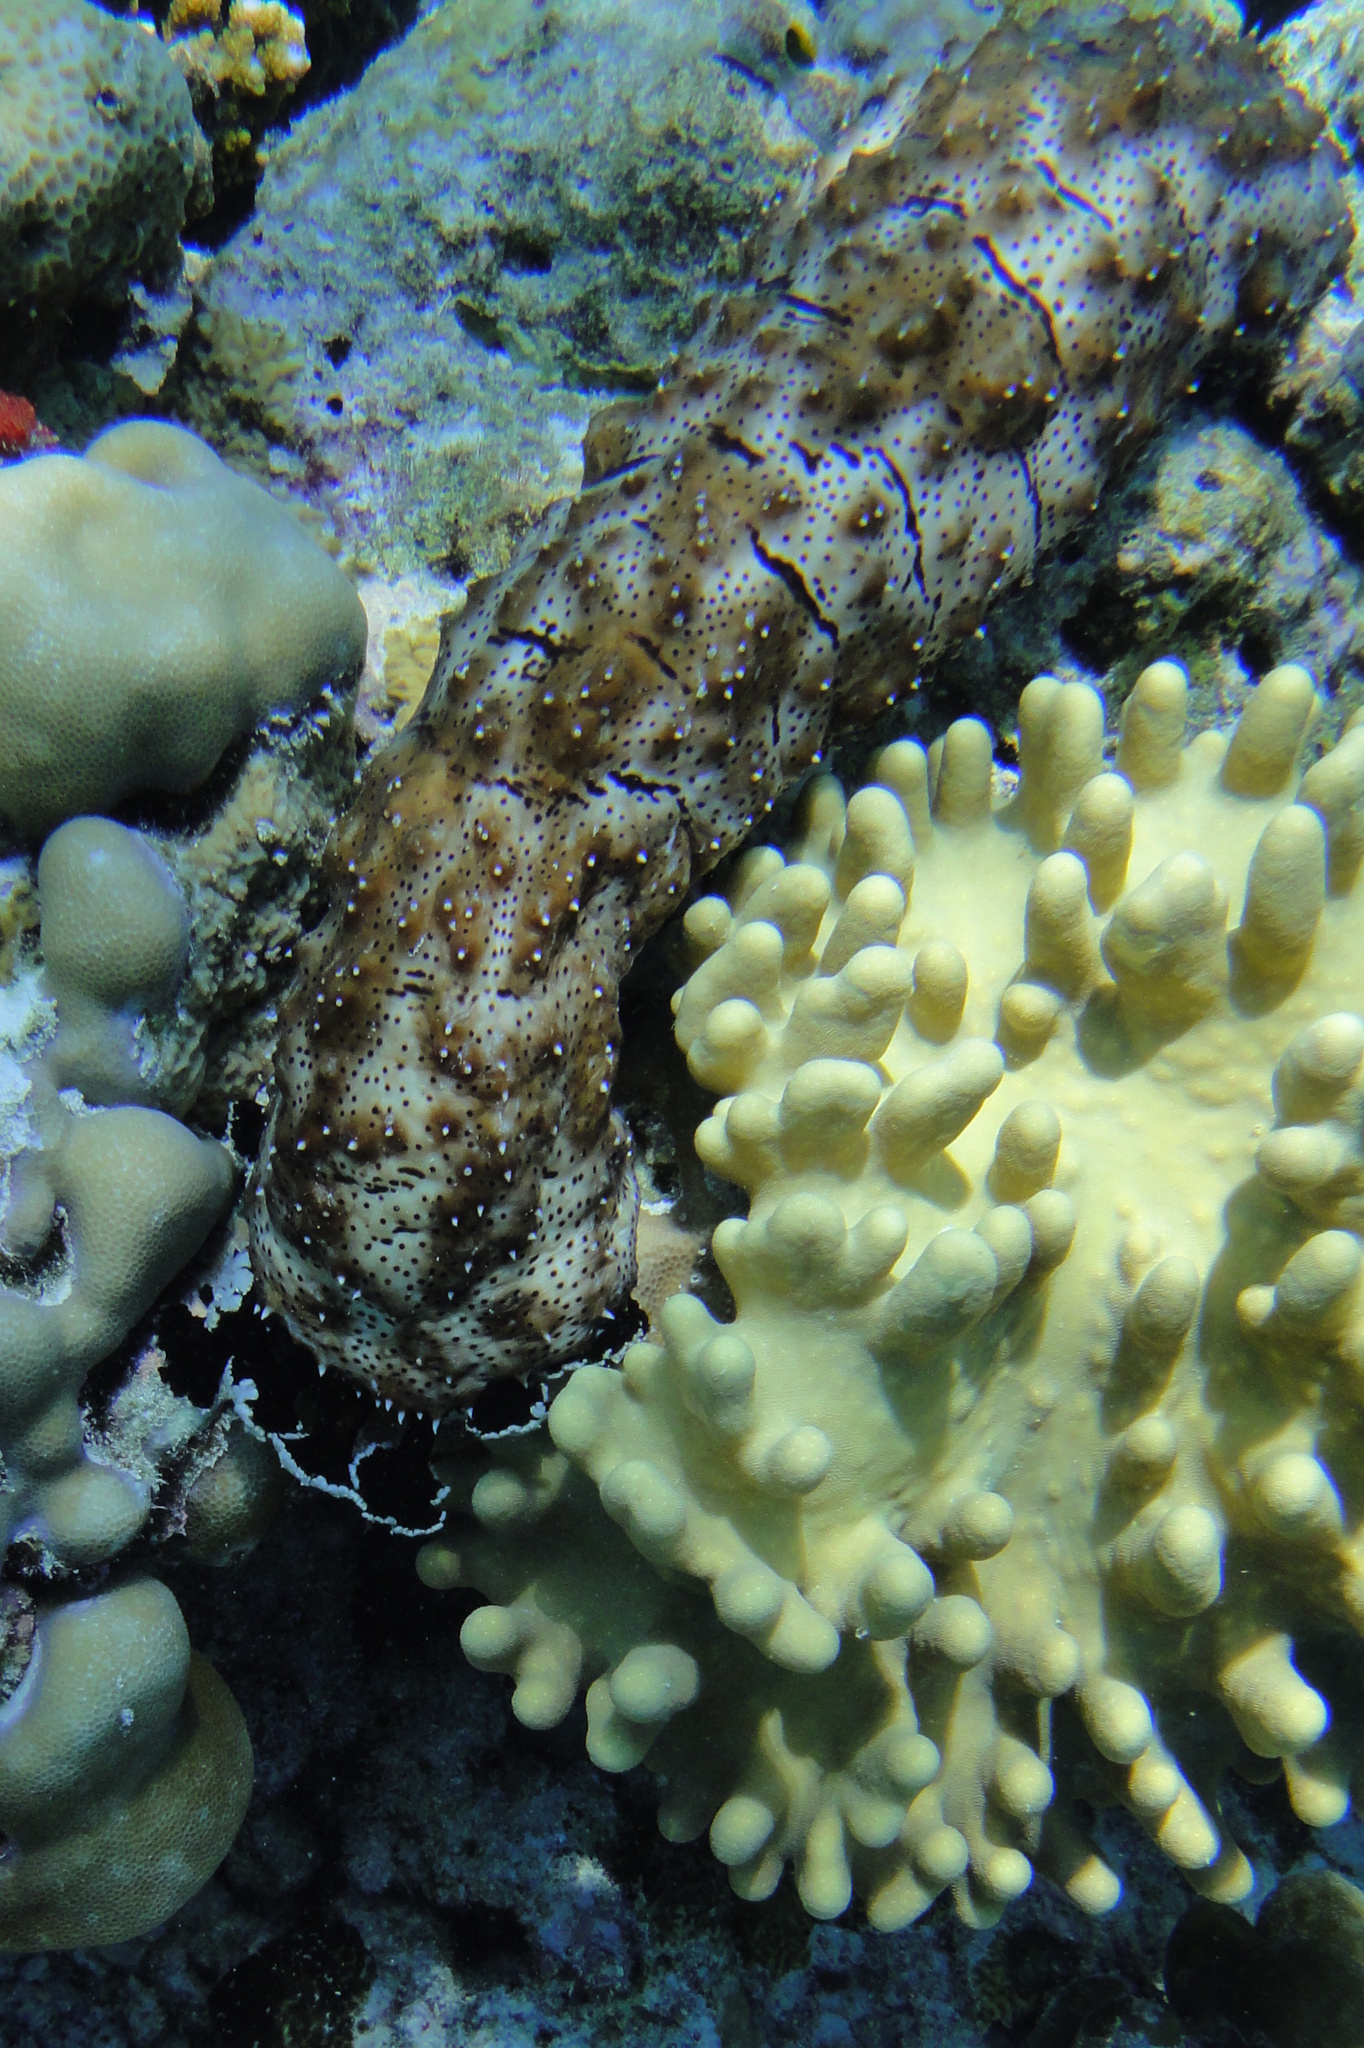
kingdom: Animalia
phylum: Echinodermata
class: Holothuroidea
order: Holothuriida
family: Holothuriidae
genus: Pearsonothuria
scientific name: Pearsonothuria graeffei
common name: Blackspotted sea cucumber
